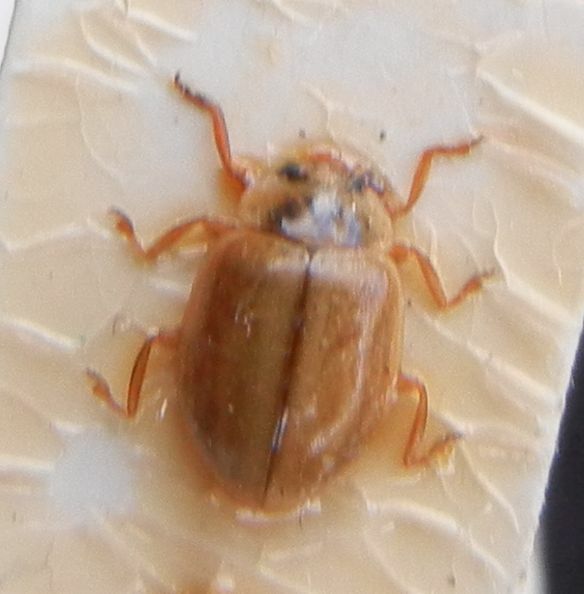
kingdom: Animalia
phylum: Arthropoda
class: Insecta
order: Coleoptera
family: Coccinellidae
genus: Aphidecta
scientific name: Aphidecta obliterata
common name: Larch ladybird
